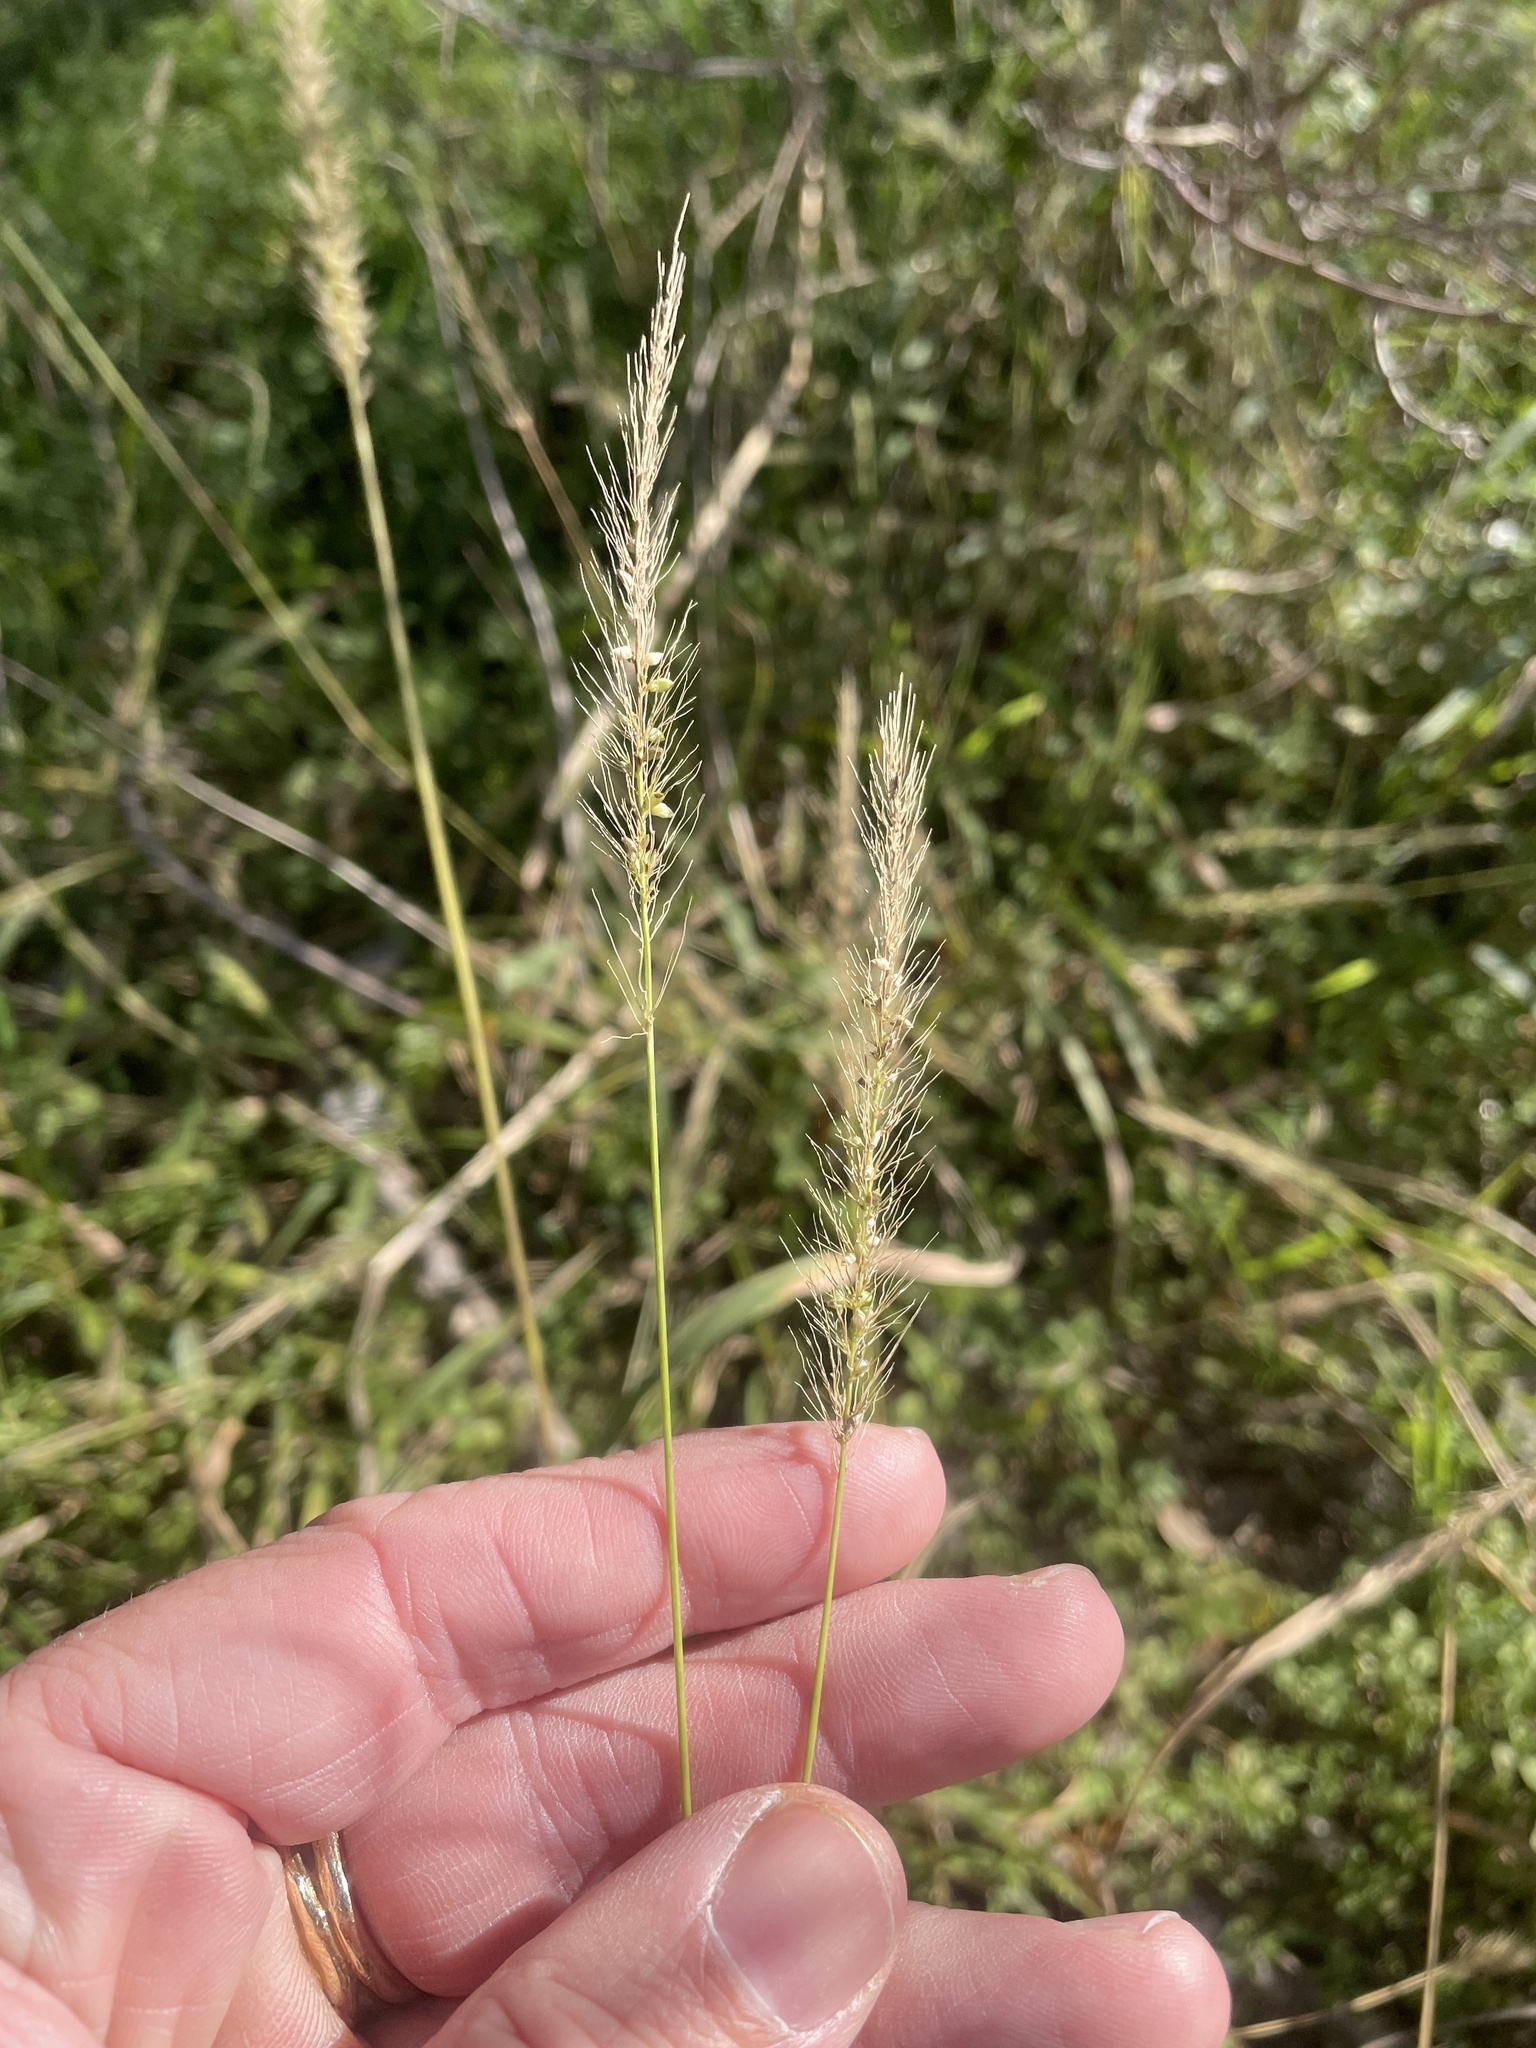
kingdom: Plantae
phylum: Tracheophyta
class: Liliopsida
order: Poales
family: Poaceae
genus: Setaria
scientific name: Setaria scheelei
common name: Southwestern bristle grass
